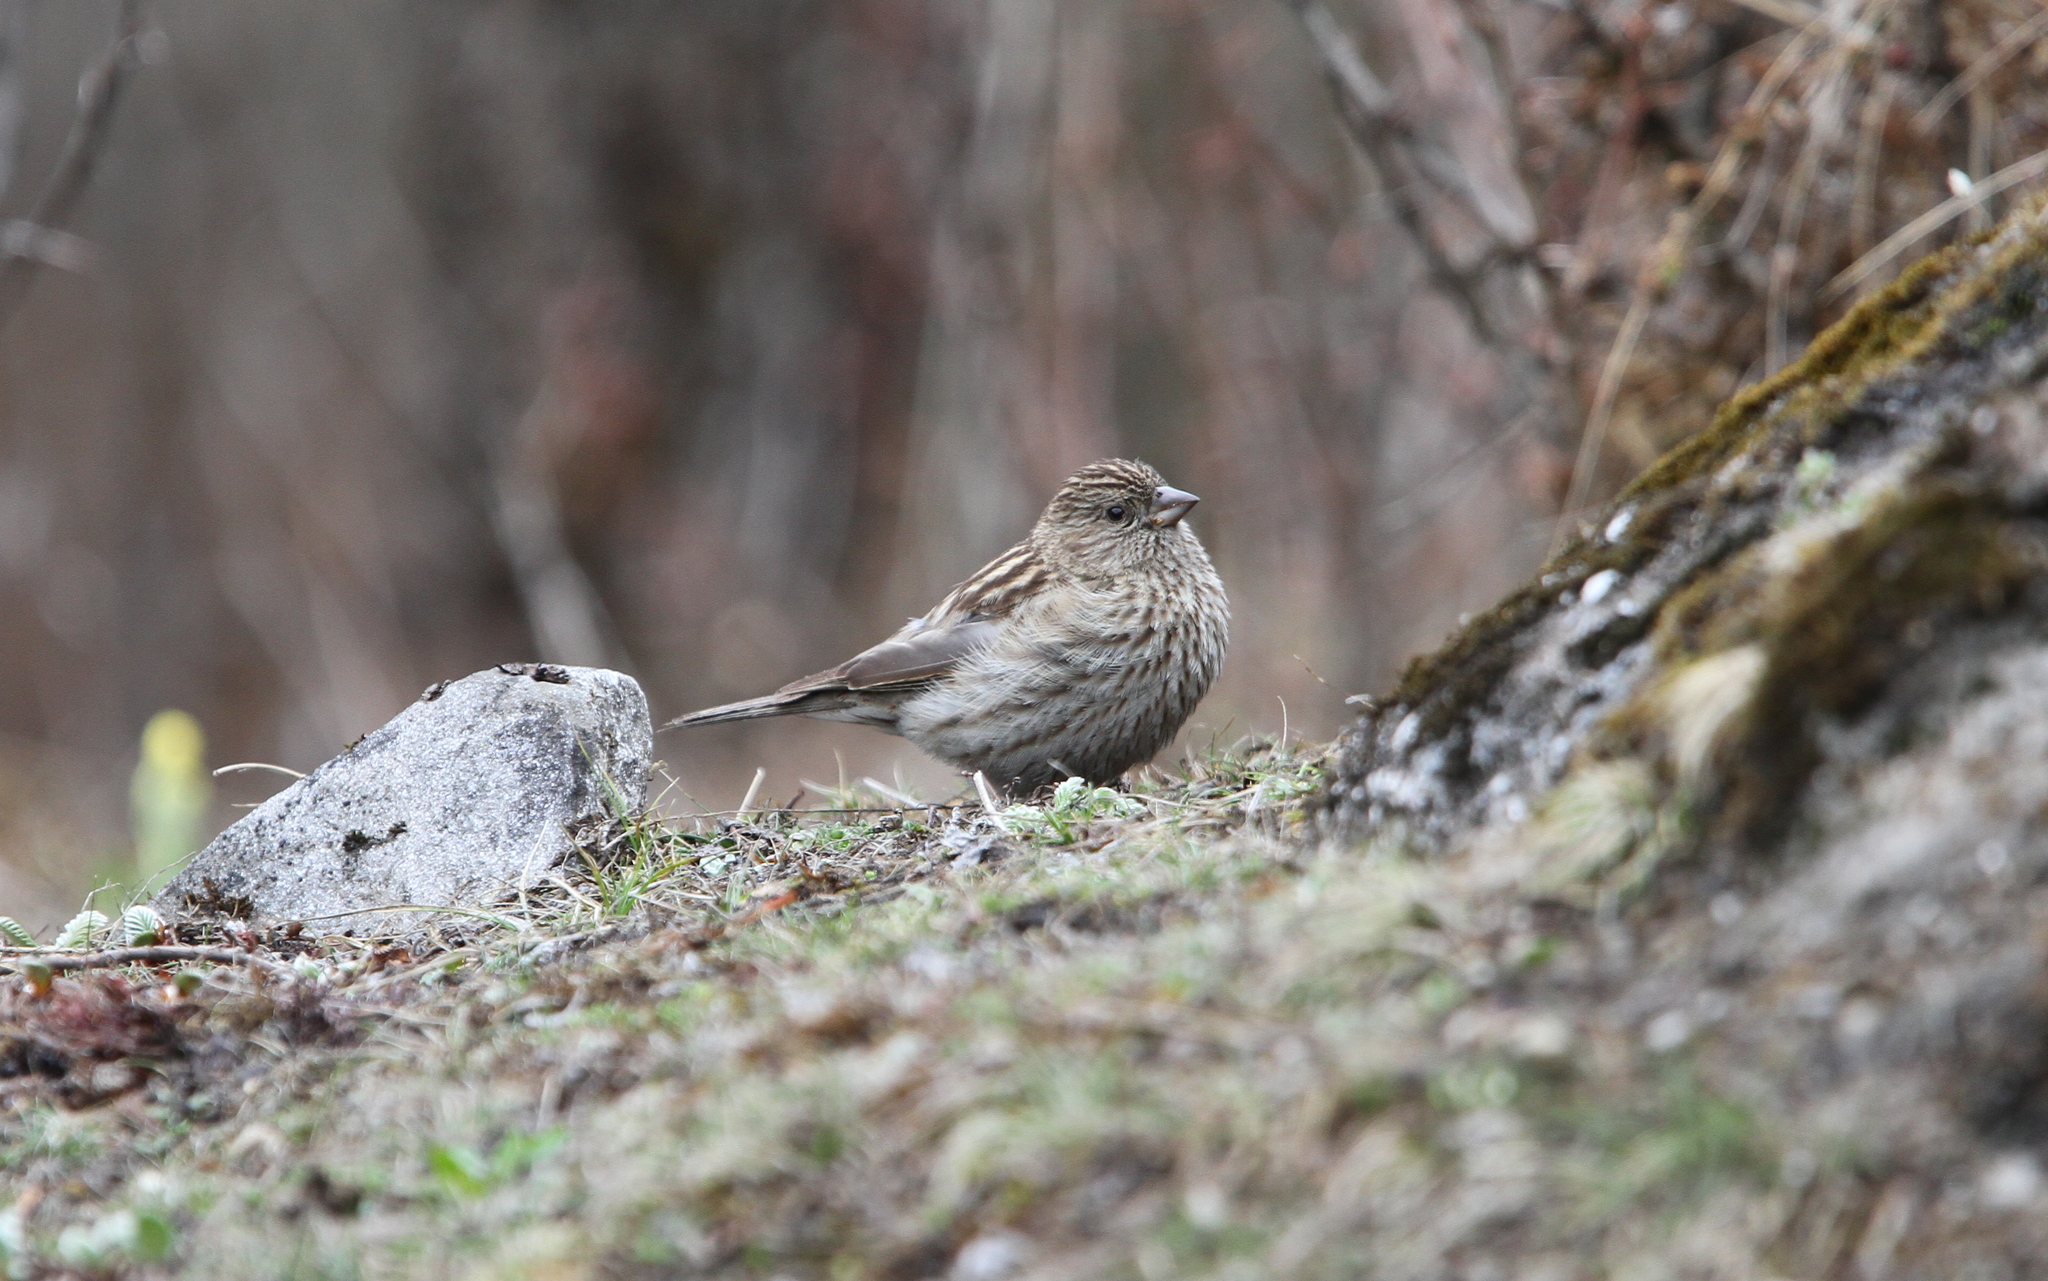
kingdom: Animalia
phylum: Chordata
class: Aves
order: Passeriformes
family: Fringillidae
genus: Carpodacus
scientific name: Carpodacus pulcherrimus
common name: Himalayan beautiful rosefinch
